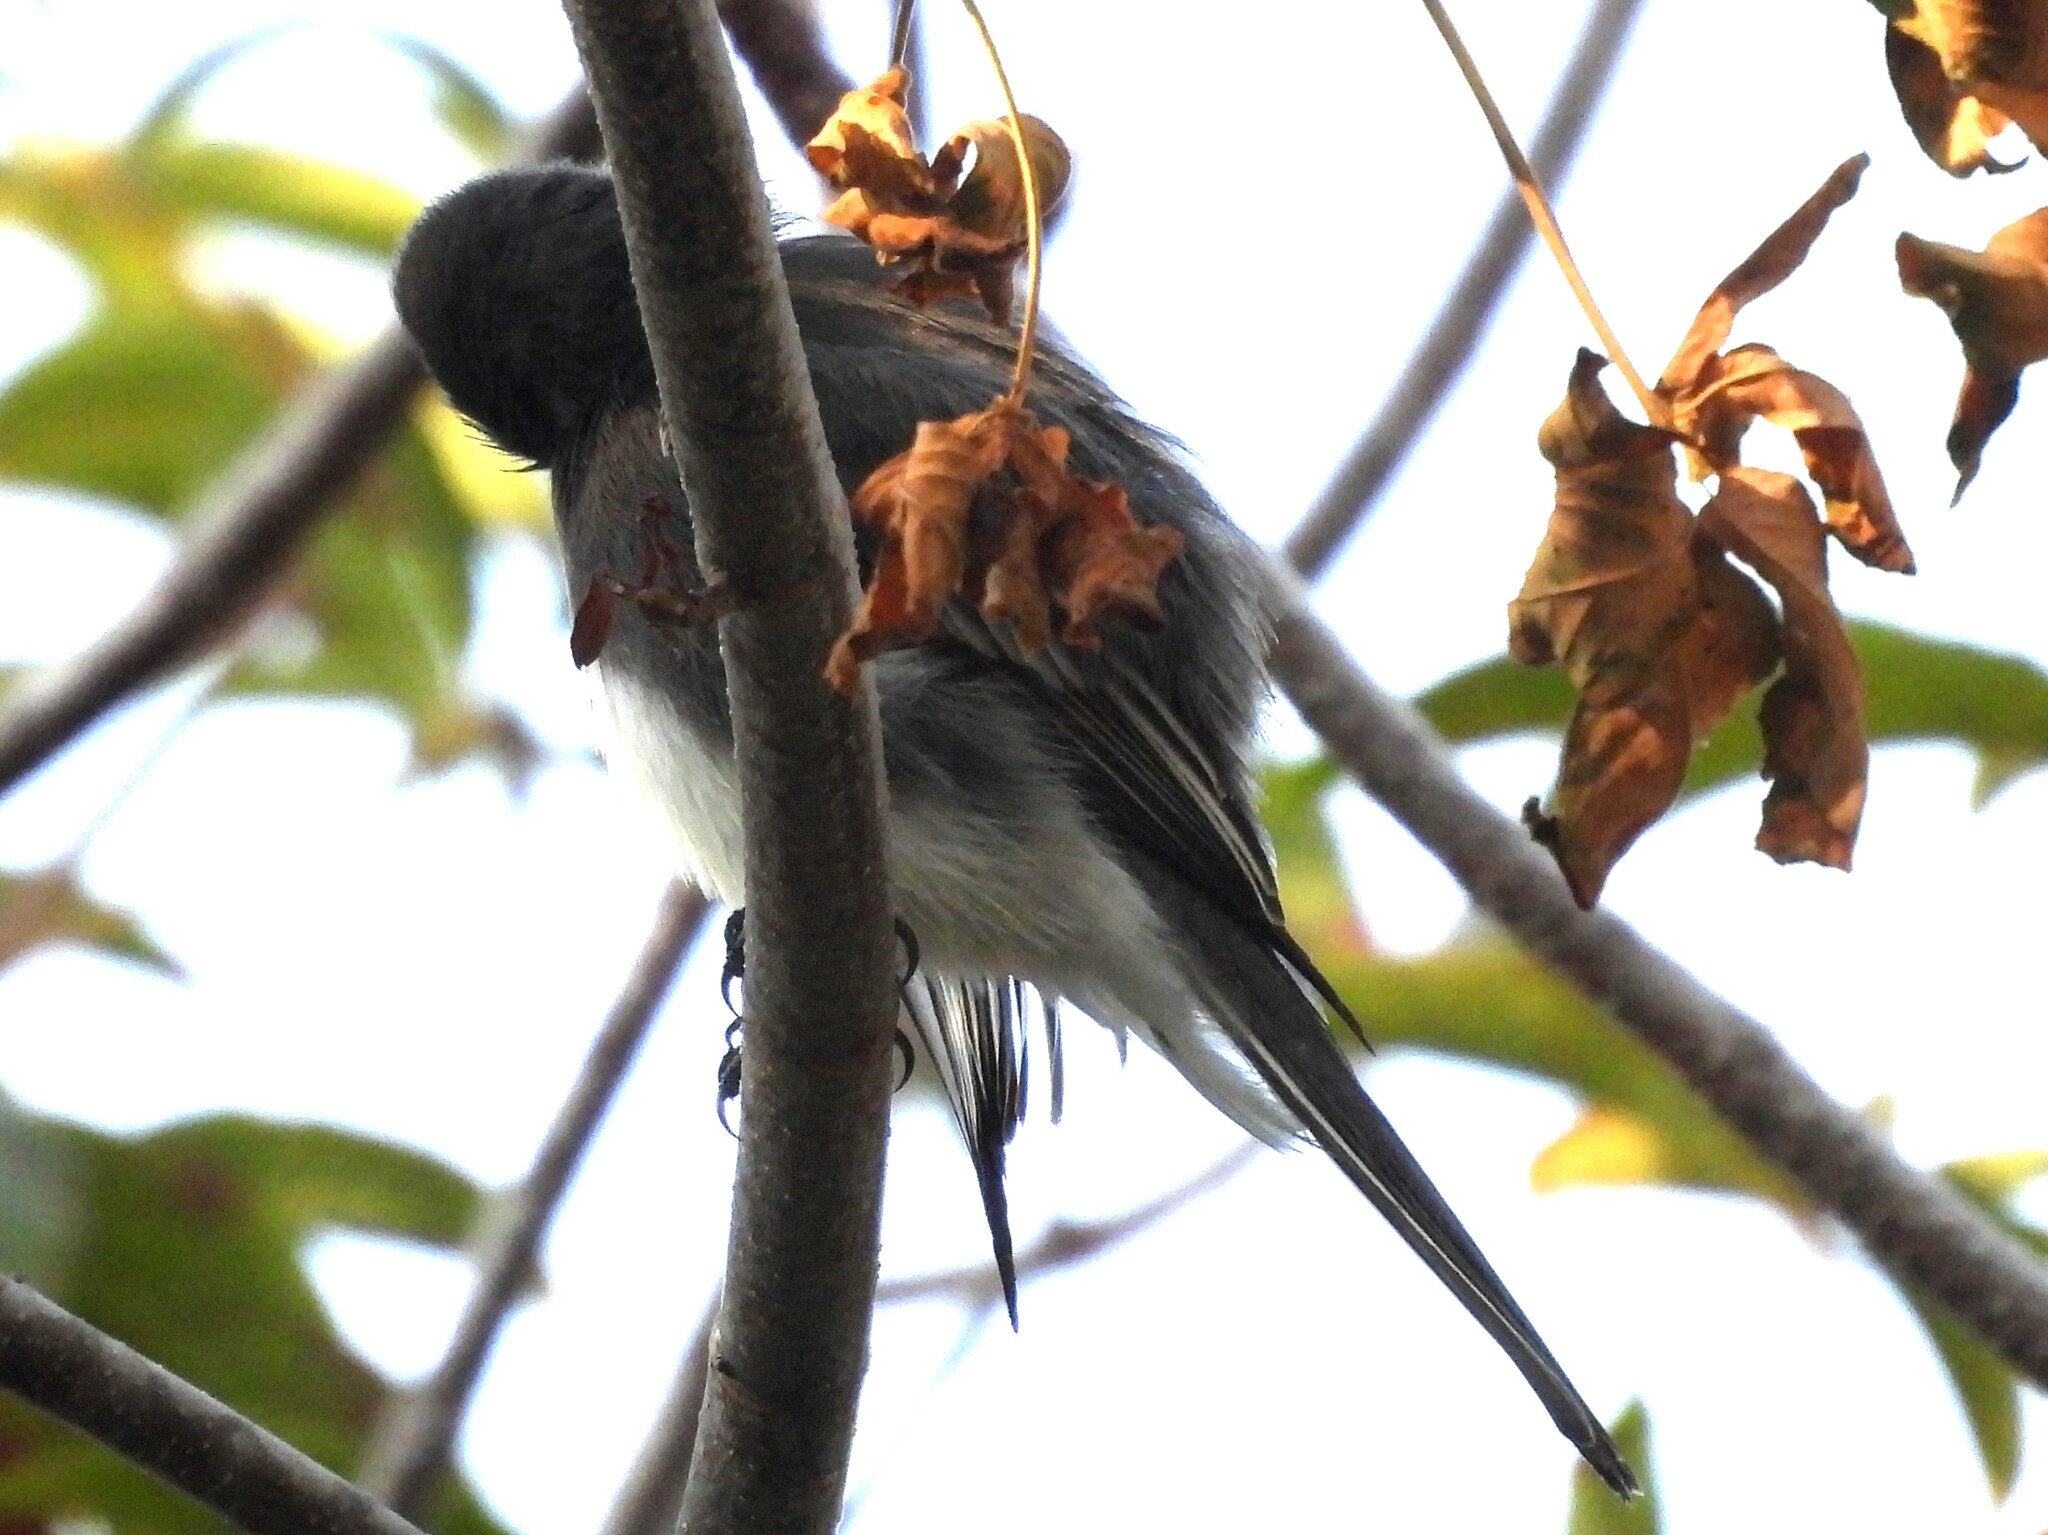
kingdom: Animalia
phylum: Chordata
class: Aves
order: Passeriformes
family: Tyrannidae
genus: Sayornis
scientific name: Sayornis nigricans
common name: Black phoebe
